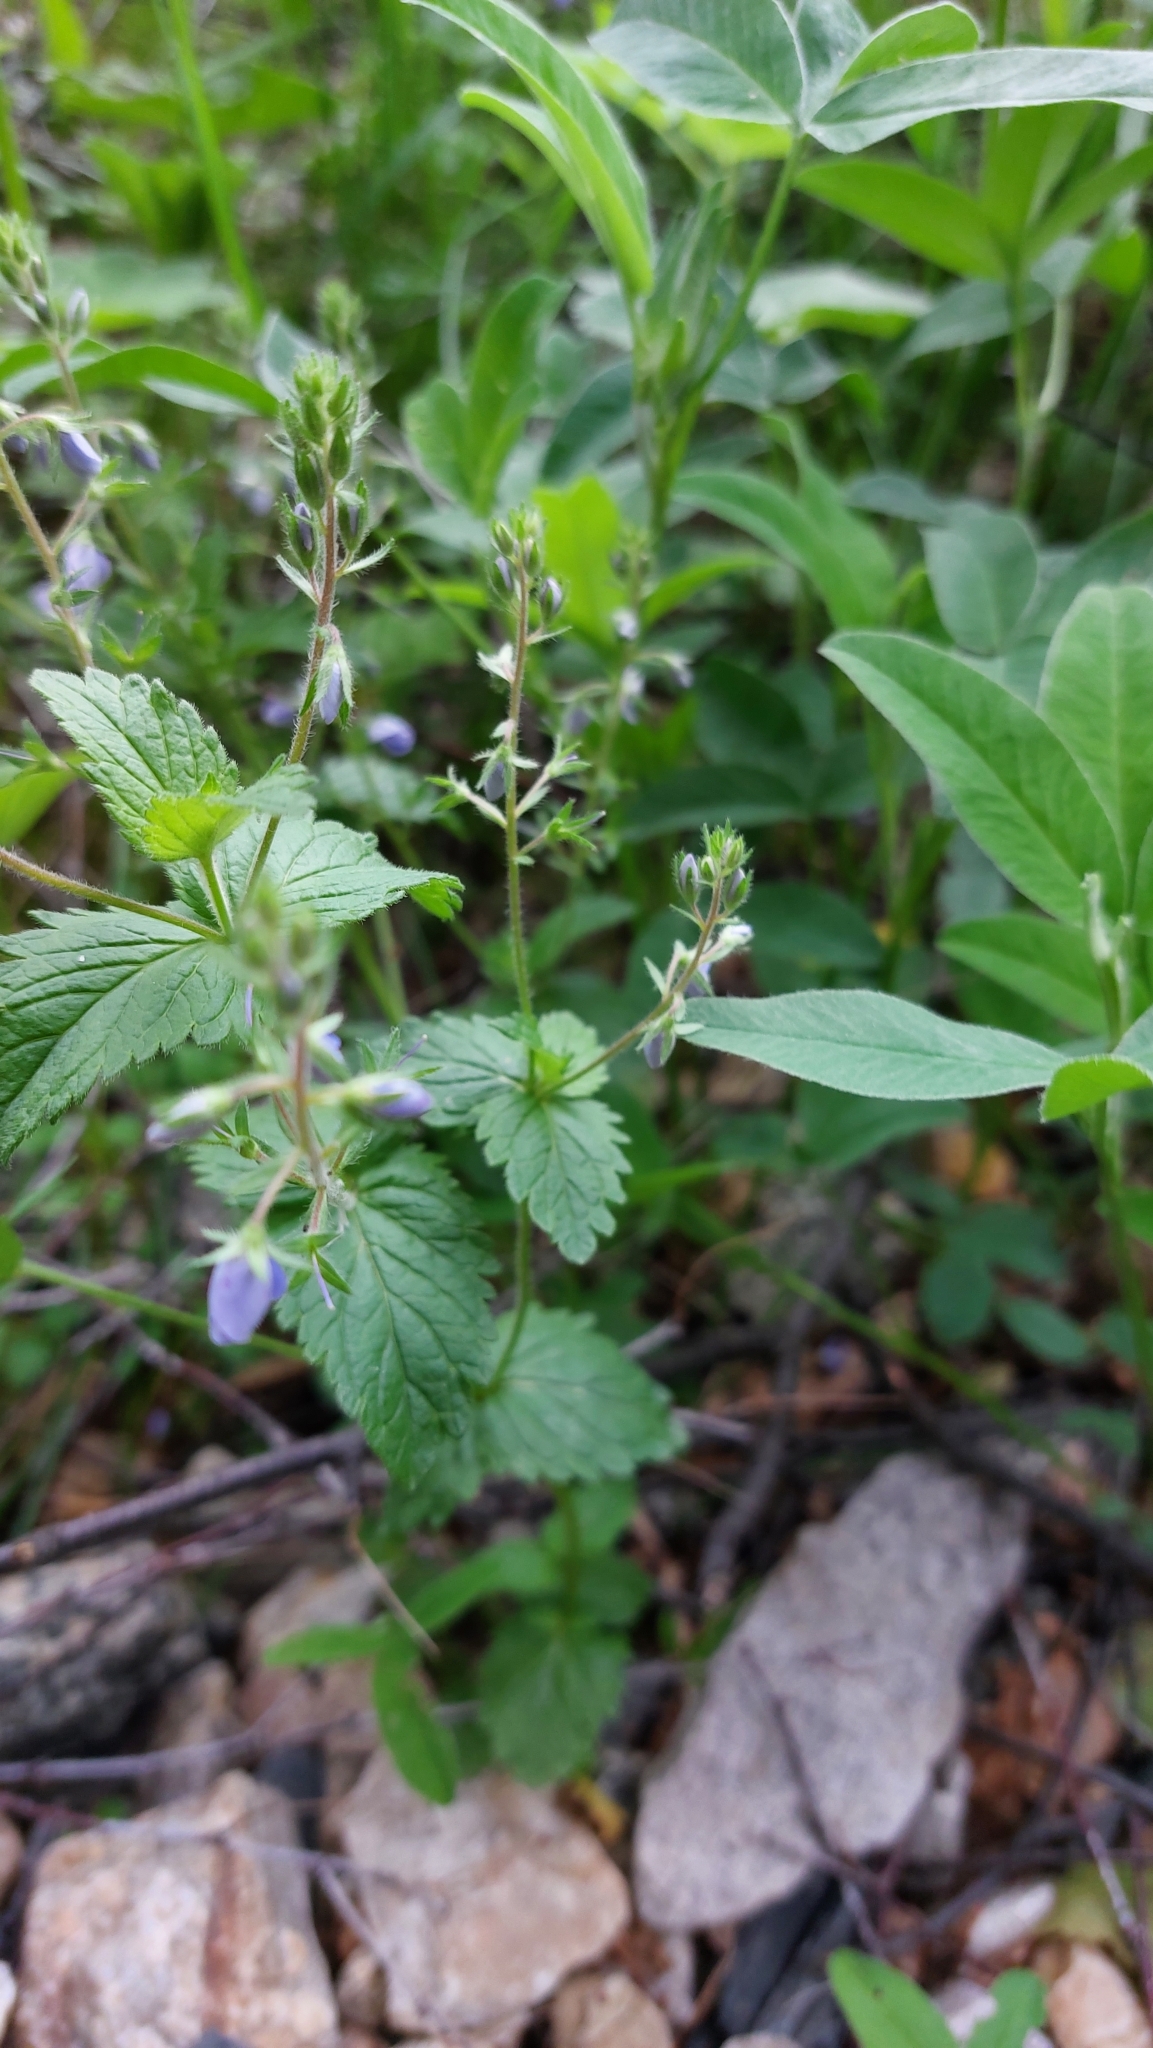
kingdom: Plantae
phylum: Tracheophyta
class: Magnoliopsida
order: Lamiales
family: Plantaginaceae
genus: Veronica
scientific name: Veronica chamaedrys
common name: Germander speedwell
